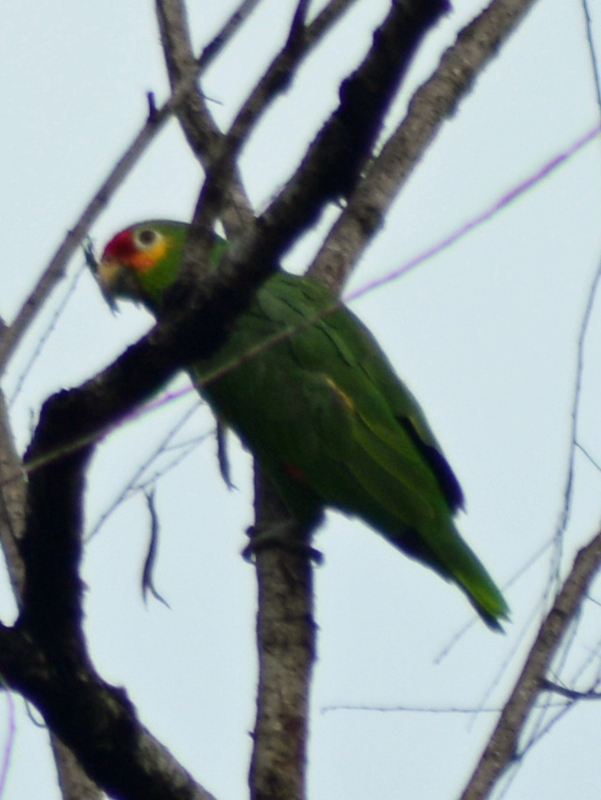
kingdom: Animalia
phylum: Chordata
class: Aves
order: Psittaciformes
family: Psittacidae
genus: Amazona
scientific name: Amazona autumnalis
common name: Red-lored amazon
